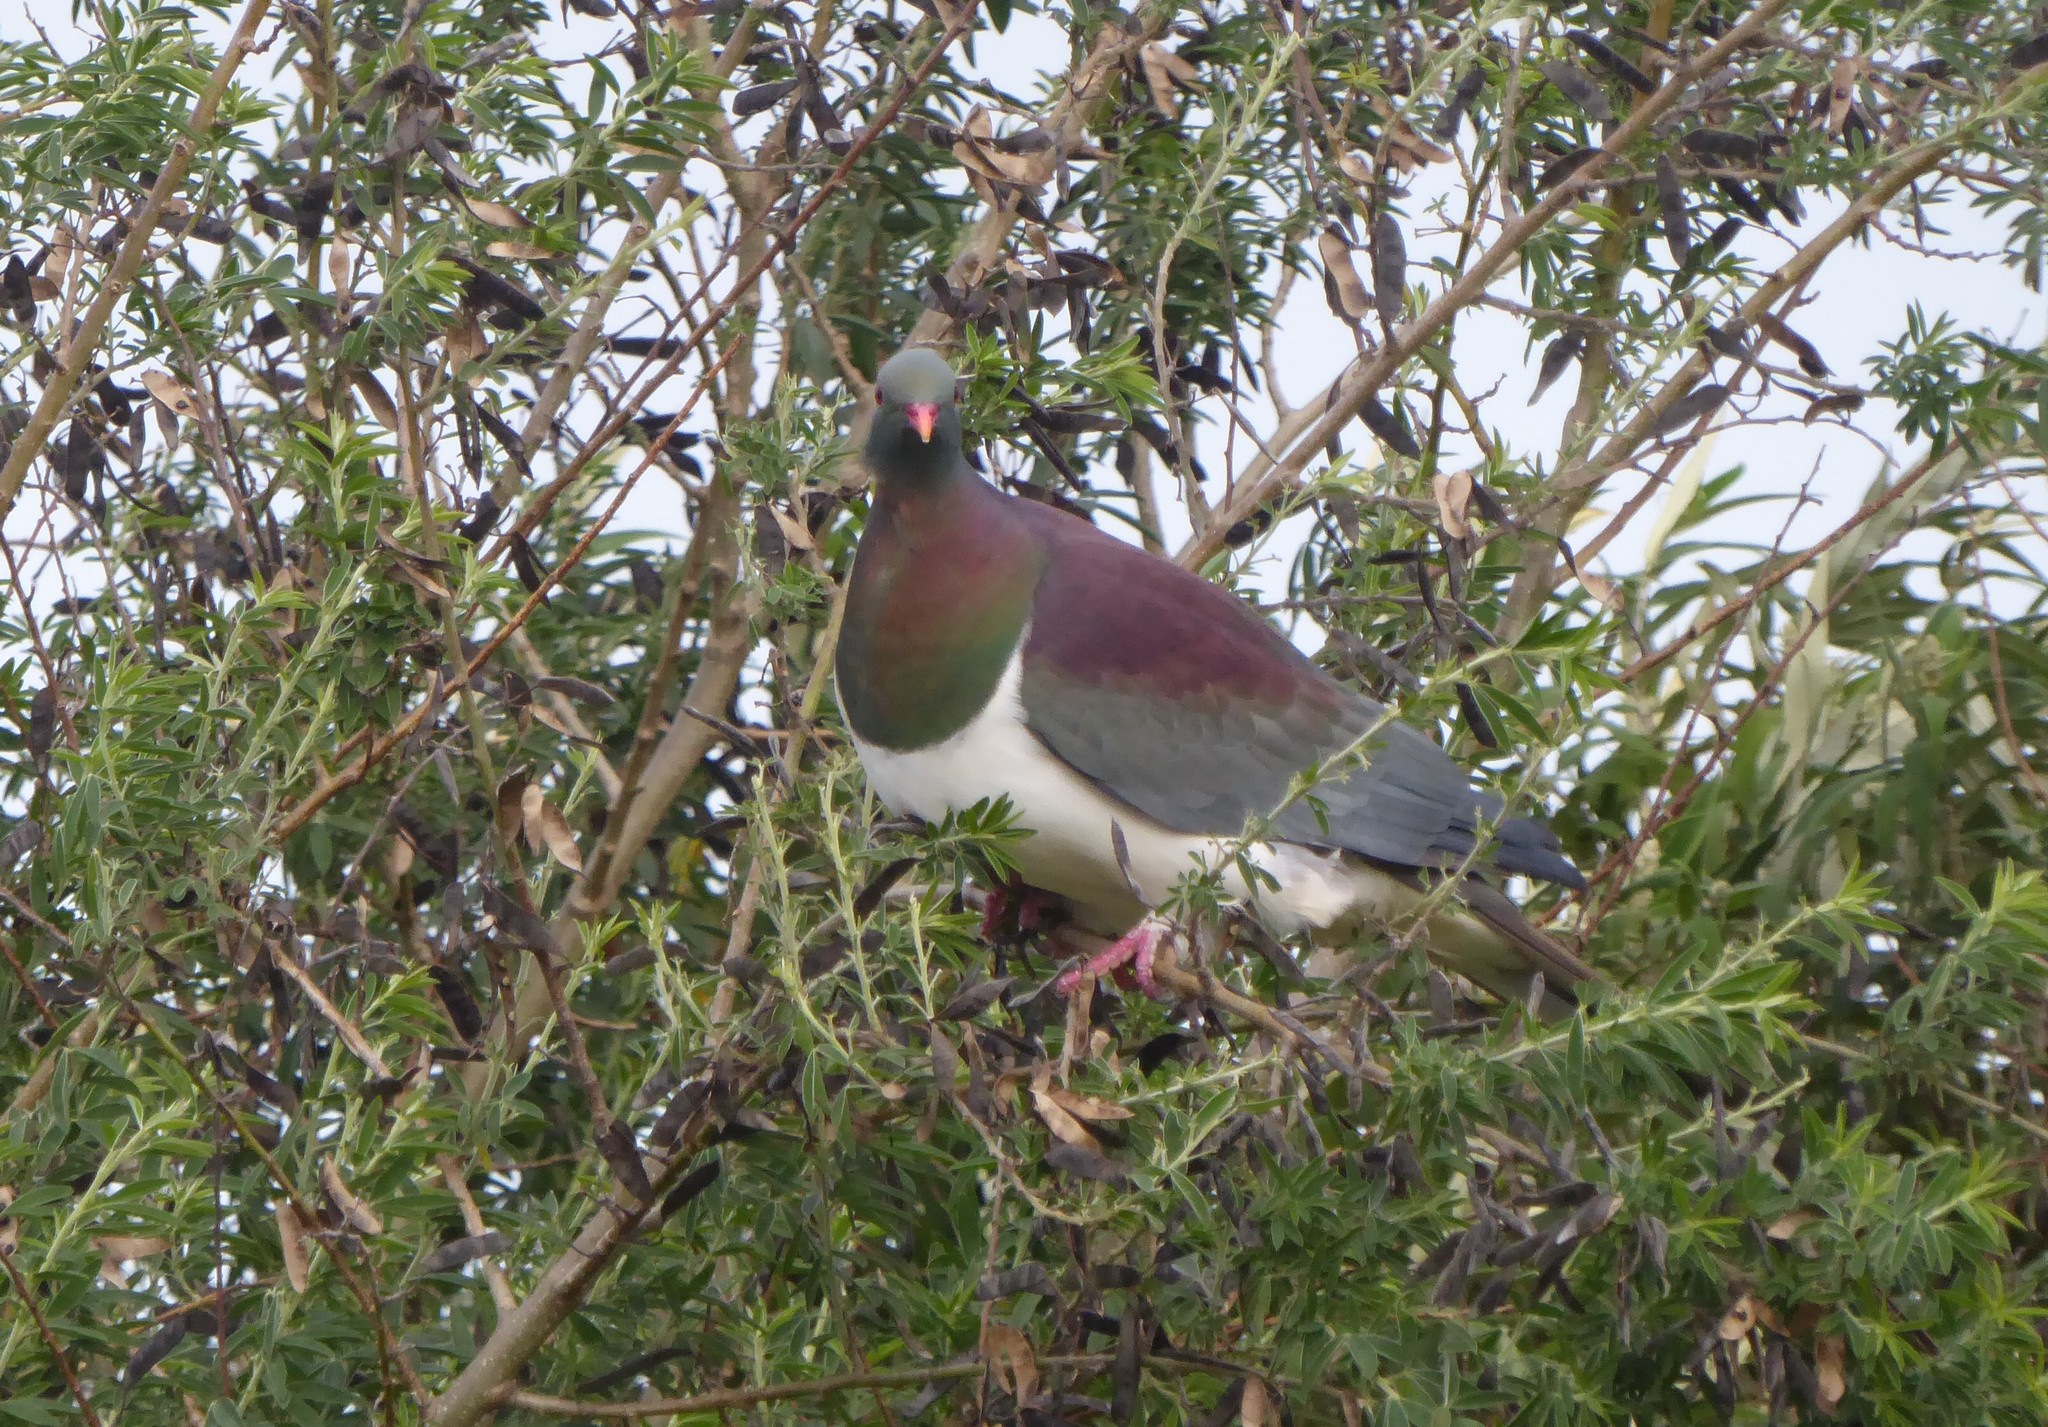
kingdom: Animalia
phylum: Chordata
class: Aves
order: Columbiformes
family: Columbidae
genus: Hemiphaga
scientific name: Hemiphaga novaeseelandiae
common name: New zealand pigeon
